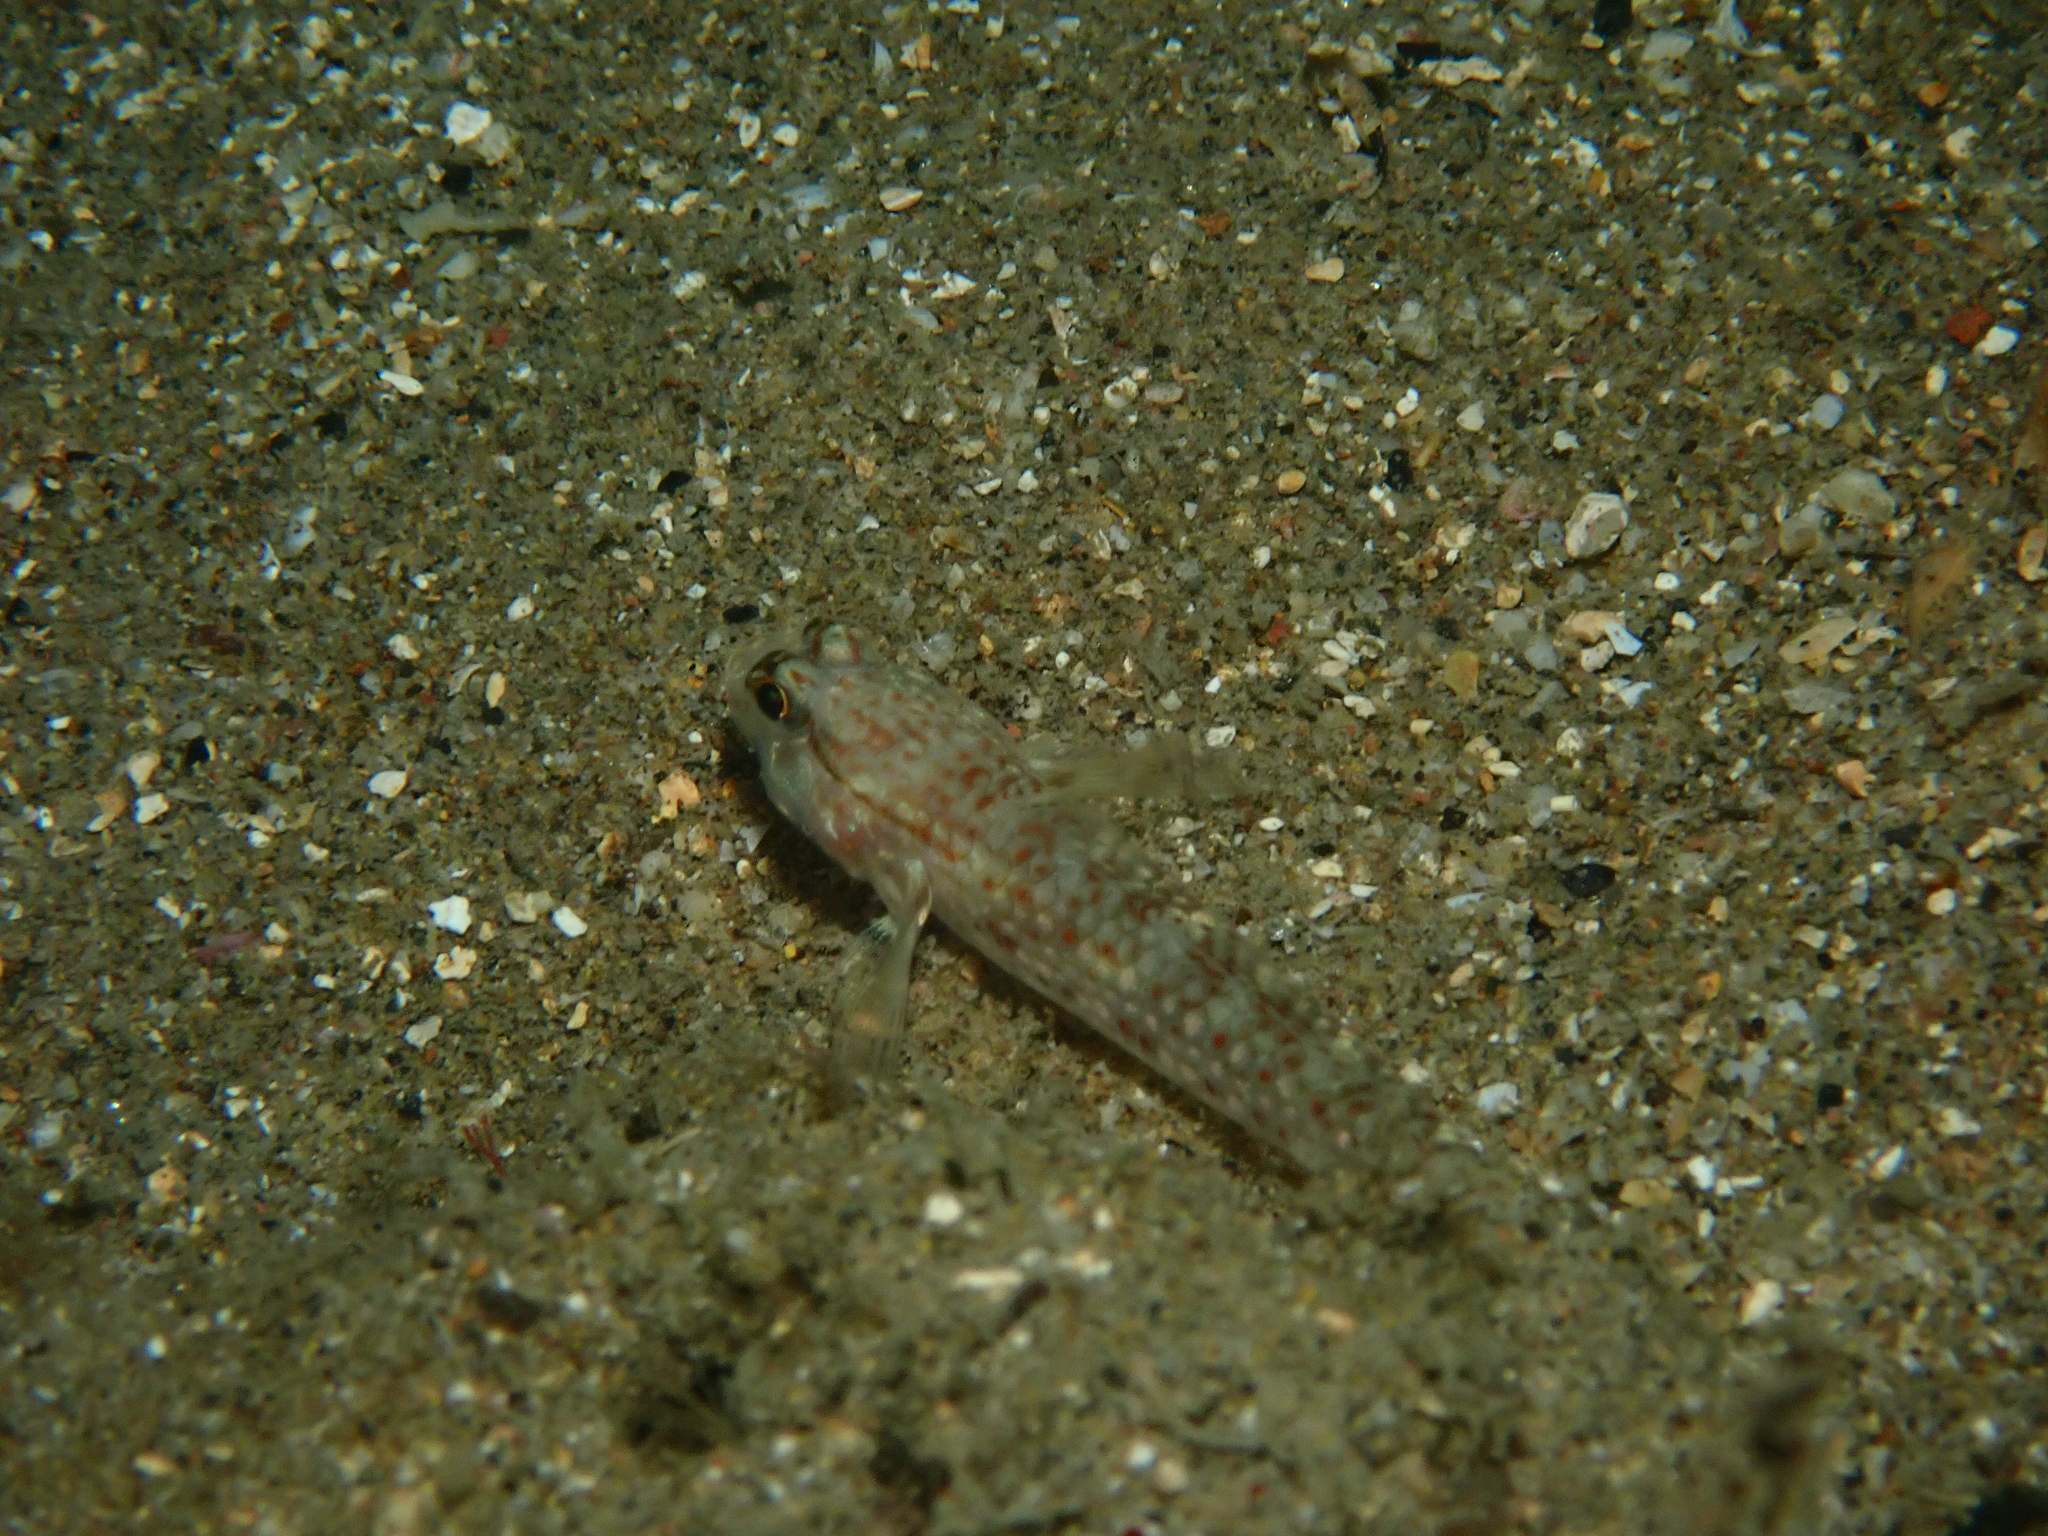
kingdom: Animalia
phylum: Chordata
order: Perciformes
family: Gobiidae
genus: Istigobius
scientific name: Istigobius campbelli
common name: Campbel's goby
